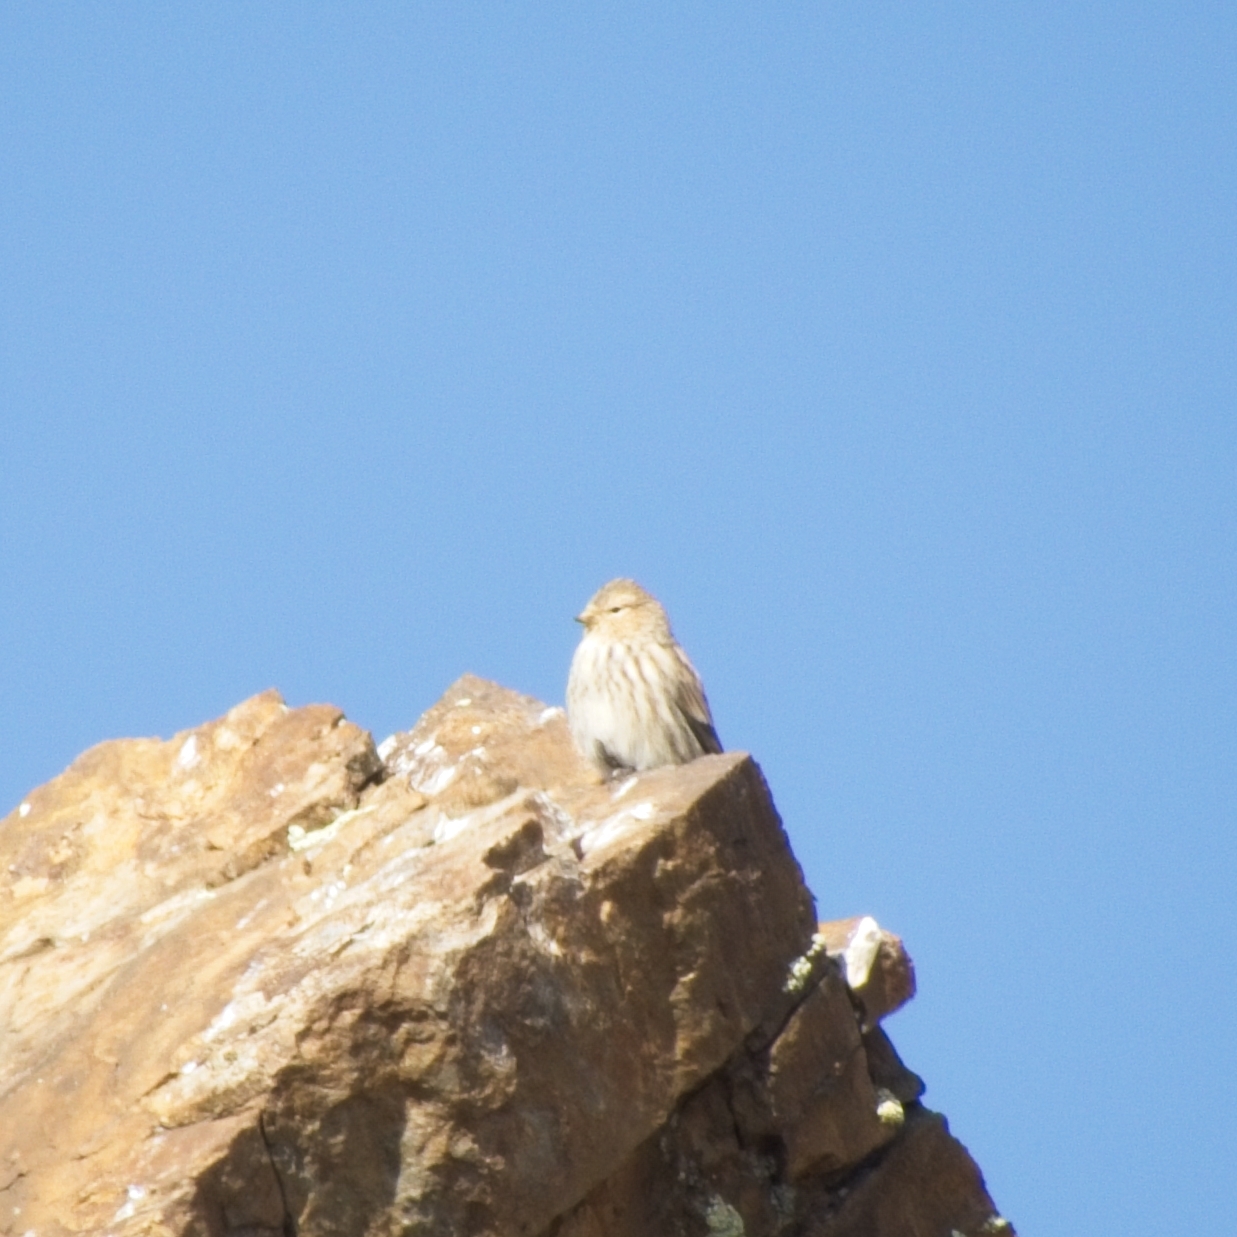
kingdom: Animalia
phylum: Chordata
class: Aves
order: Passeriformes
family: Fringillidae
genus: Linaria
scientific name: Linaria flavirostris
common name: Twite
